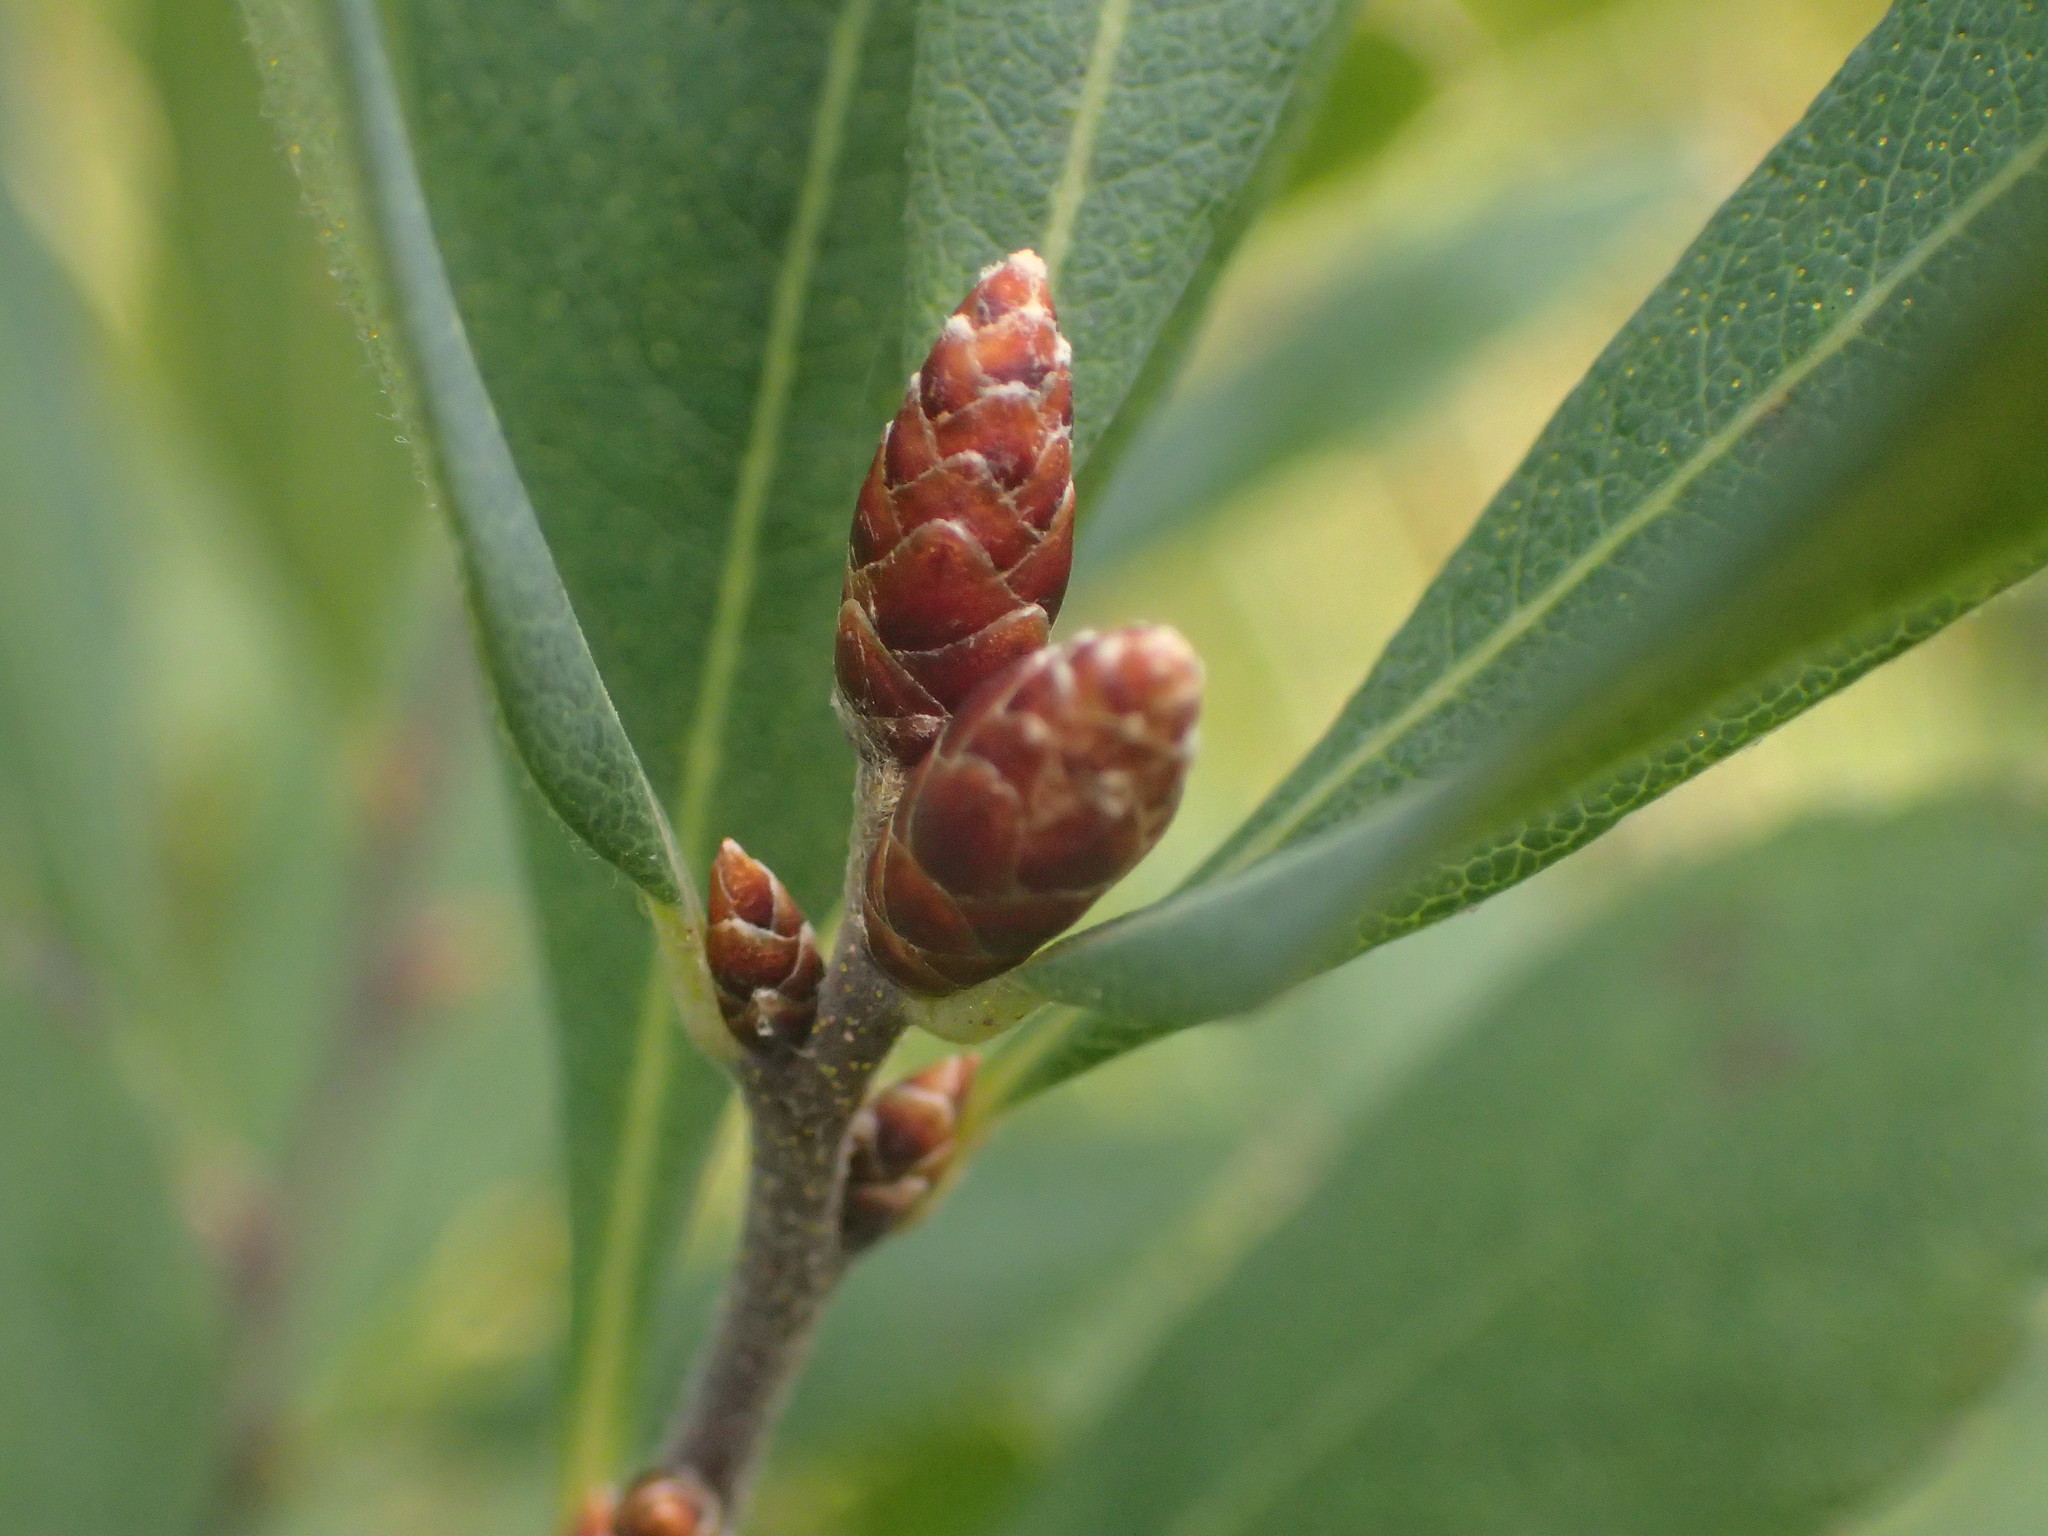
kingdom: Plantae
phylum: Tracheophyta
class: Magnoliopsida
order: Fagales
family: Myricaceae
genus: Myrica
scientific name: Myrica gale
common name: Sweet gale
